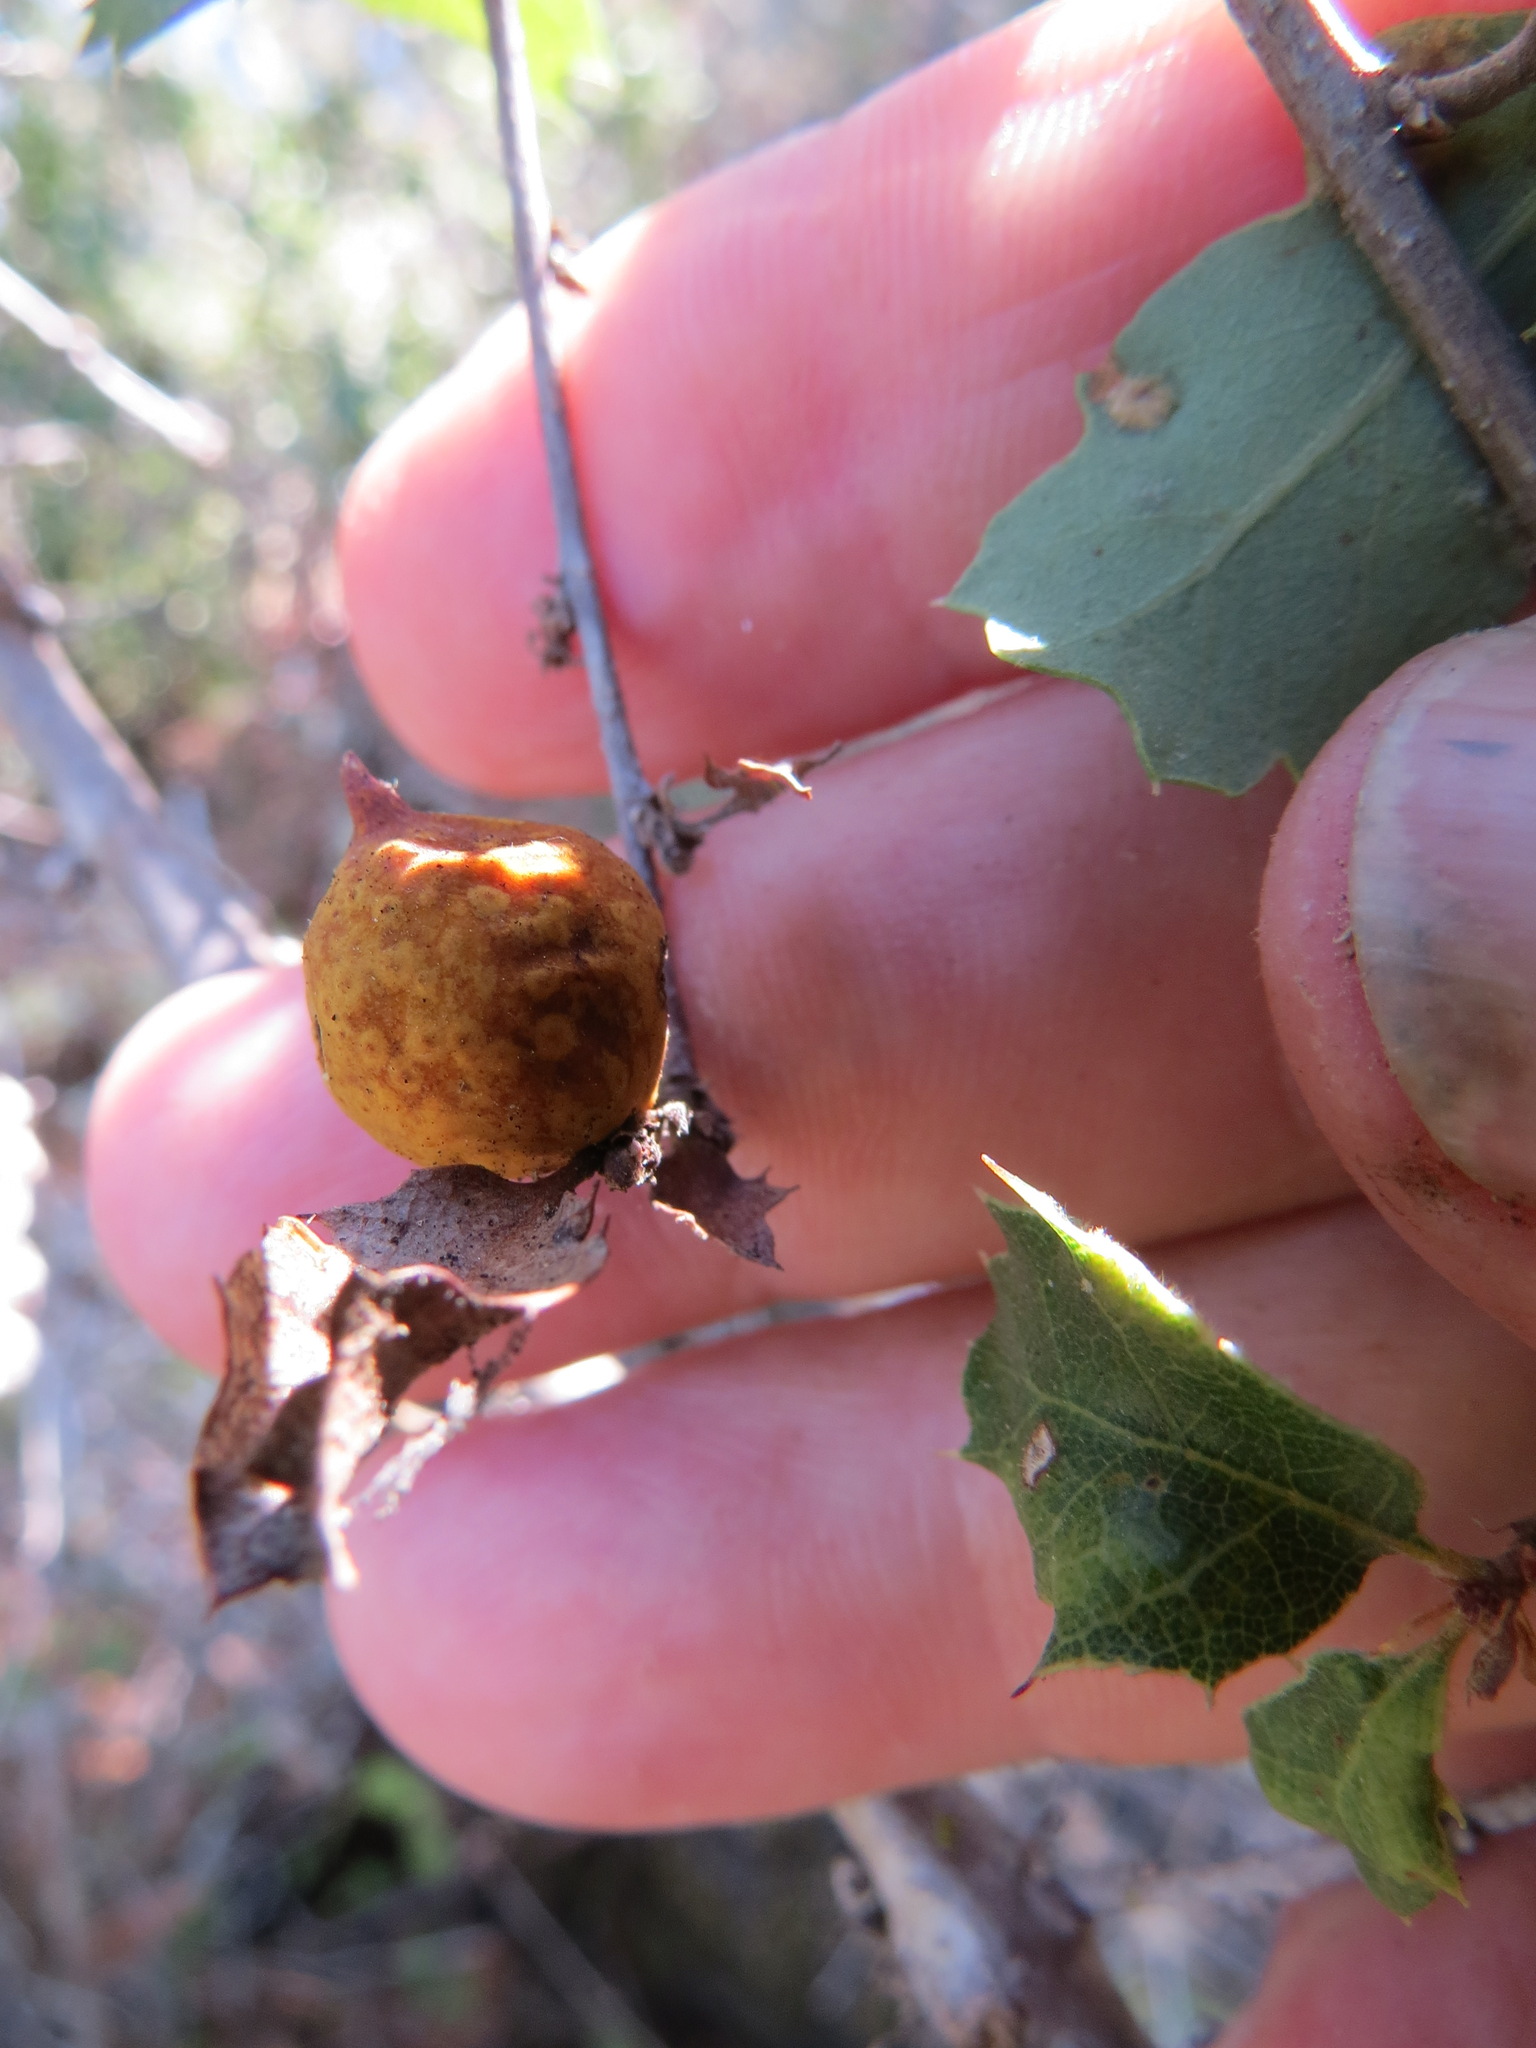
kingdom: Animalia
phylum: Arthropoda
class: Insecta
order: Hymenoptera
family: Cynipidae
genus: Burnettweldia
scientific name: Burnettweldia
